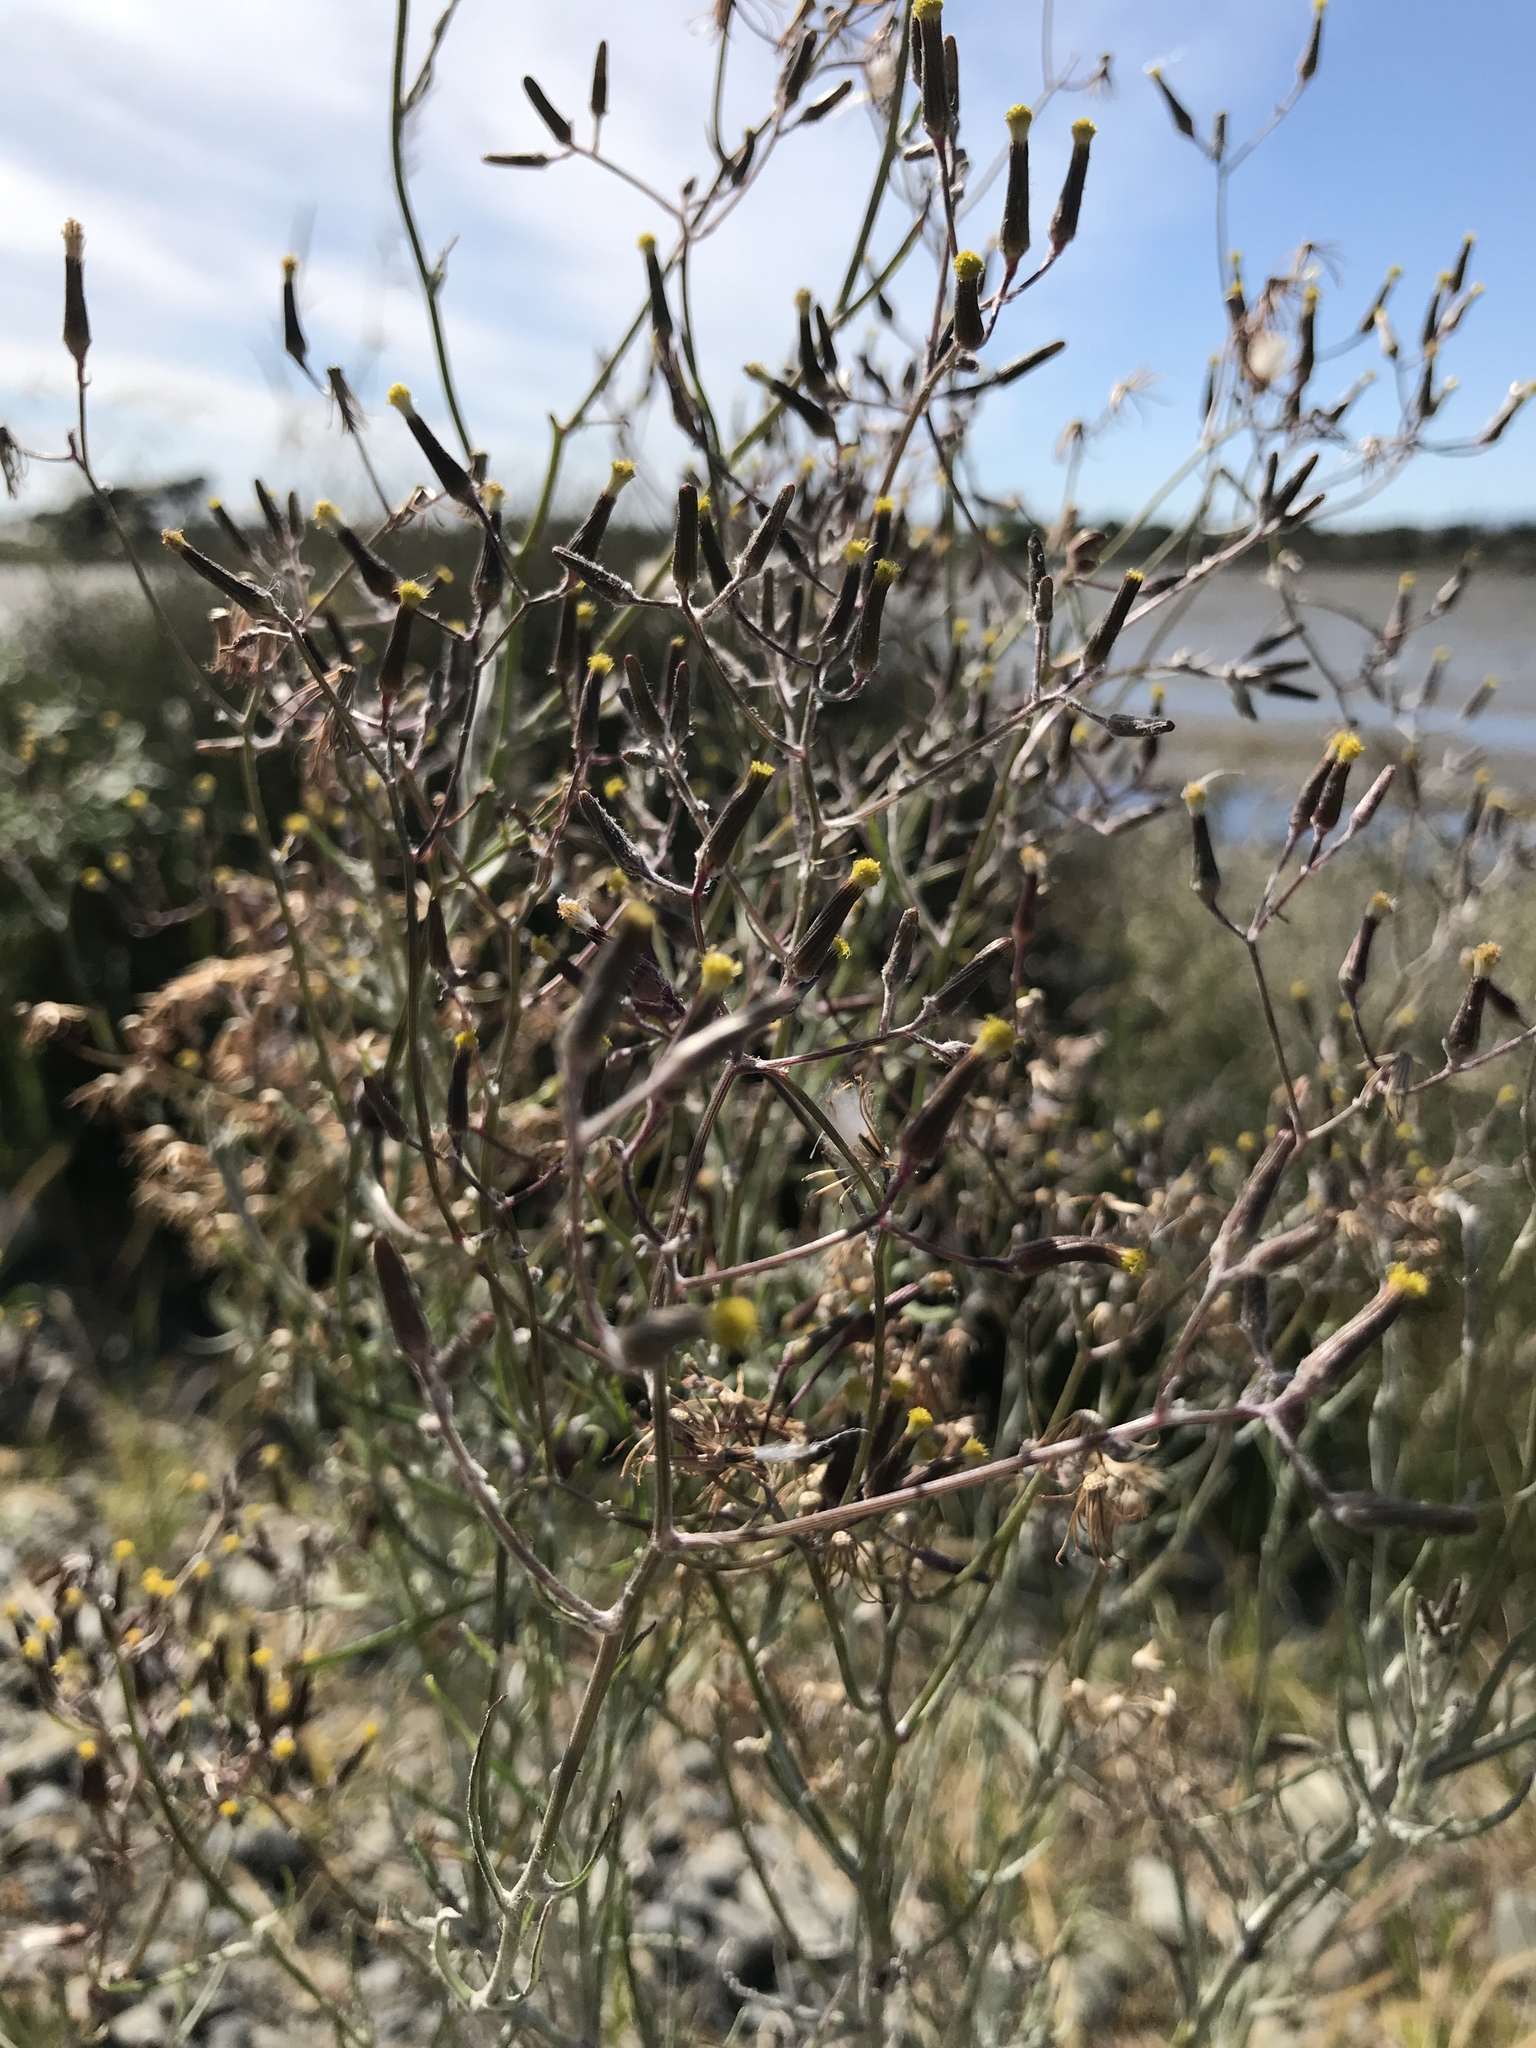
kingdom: Plantae
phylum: Tracheophyta
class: Magnoliopsida
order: Asterales
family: Asteraceae
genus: Senecio
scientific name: Senecio quadridentatus
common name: Cotton fireweed
